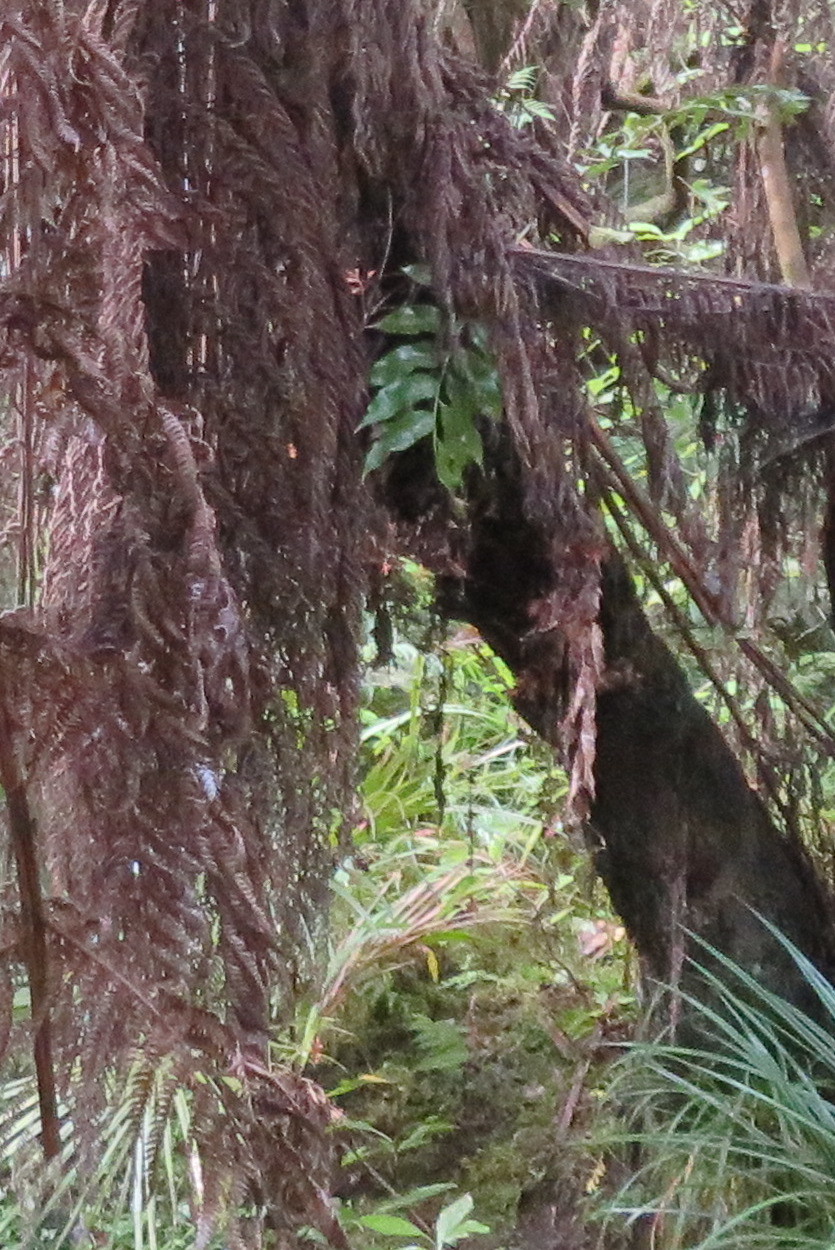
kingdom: Plantae
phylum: Tracheophyta
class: Polypodiopsida
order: Polypodiales
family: Aspleniaceae
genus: Asplenium
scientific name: Asplenium oblongifolium
